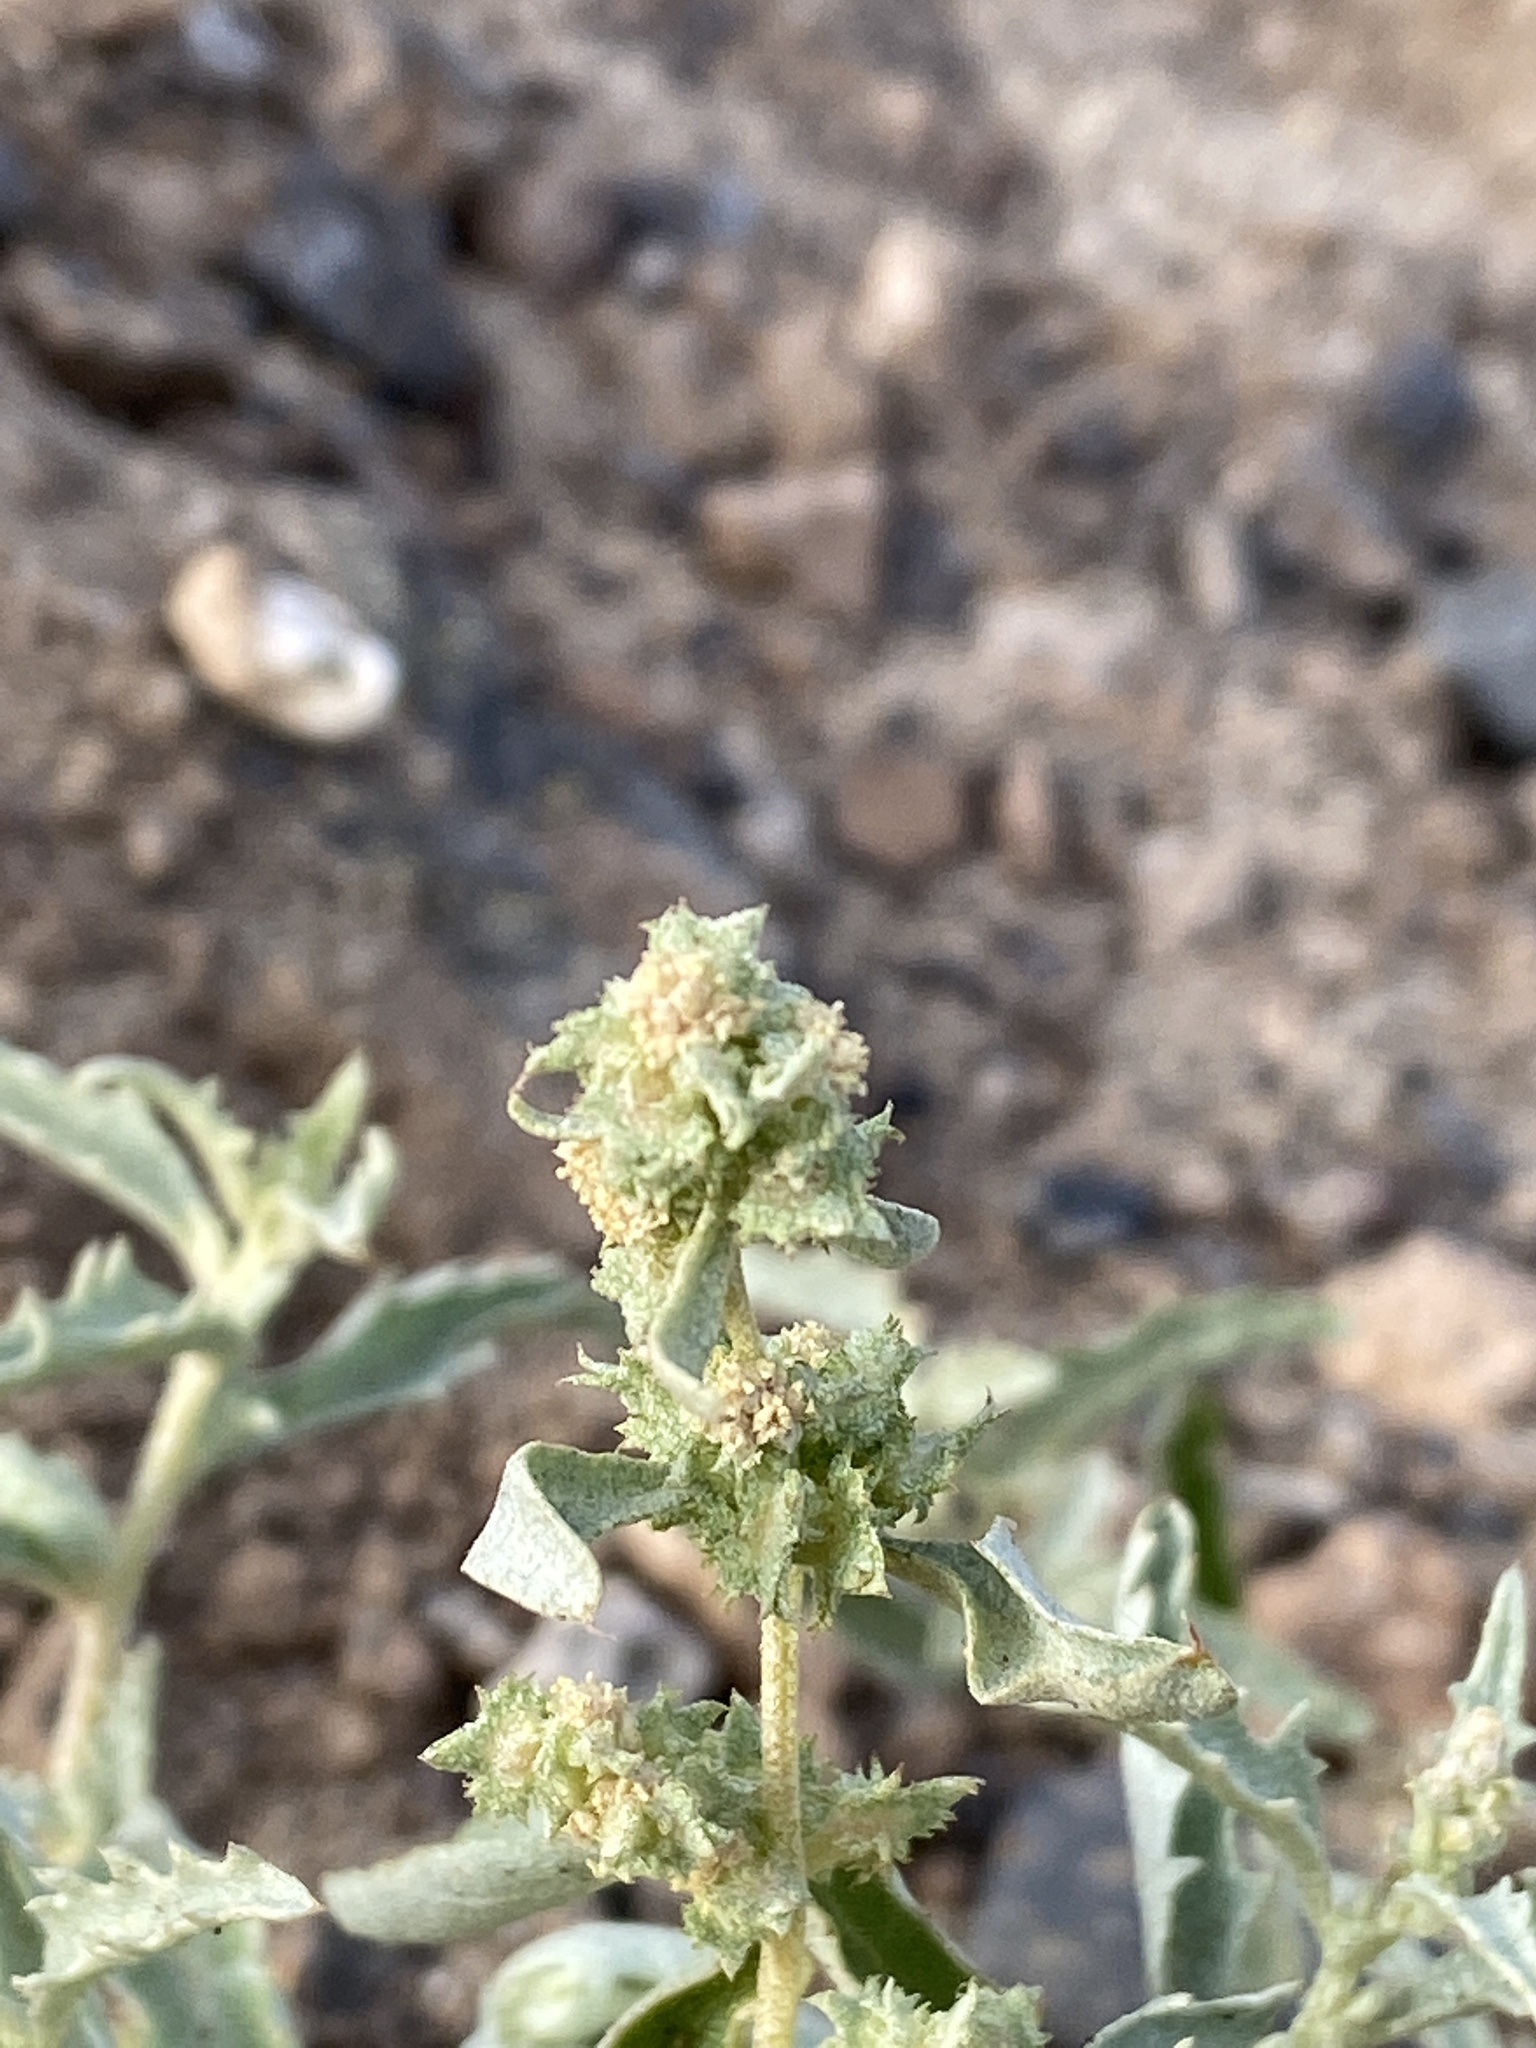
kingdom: Plantae
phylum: Tracheophyta
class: Magnoliopsida
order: Caryophyllales
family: Amaranthaceae
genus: Atriplex
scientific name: Atriplex semilunaris
